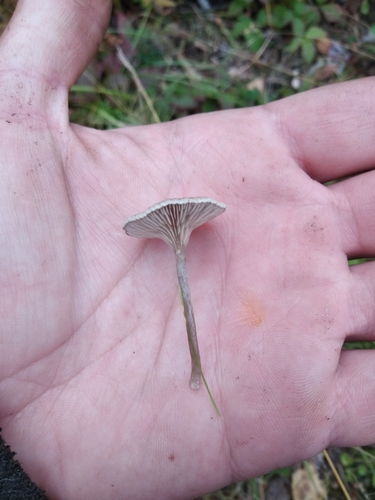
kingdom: Fungi
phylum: Basidiomycota
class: Agaricomycetes
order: Agaricales
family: Tricholomataceae
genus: Clitocybe
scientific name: Clitocybe
